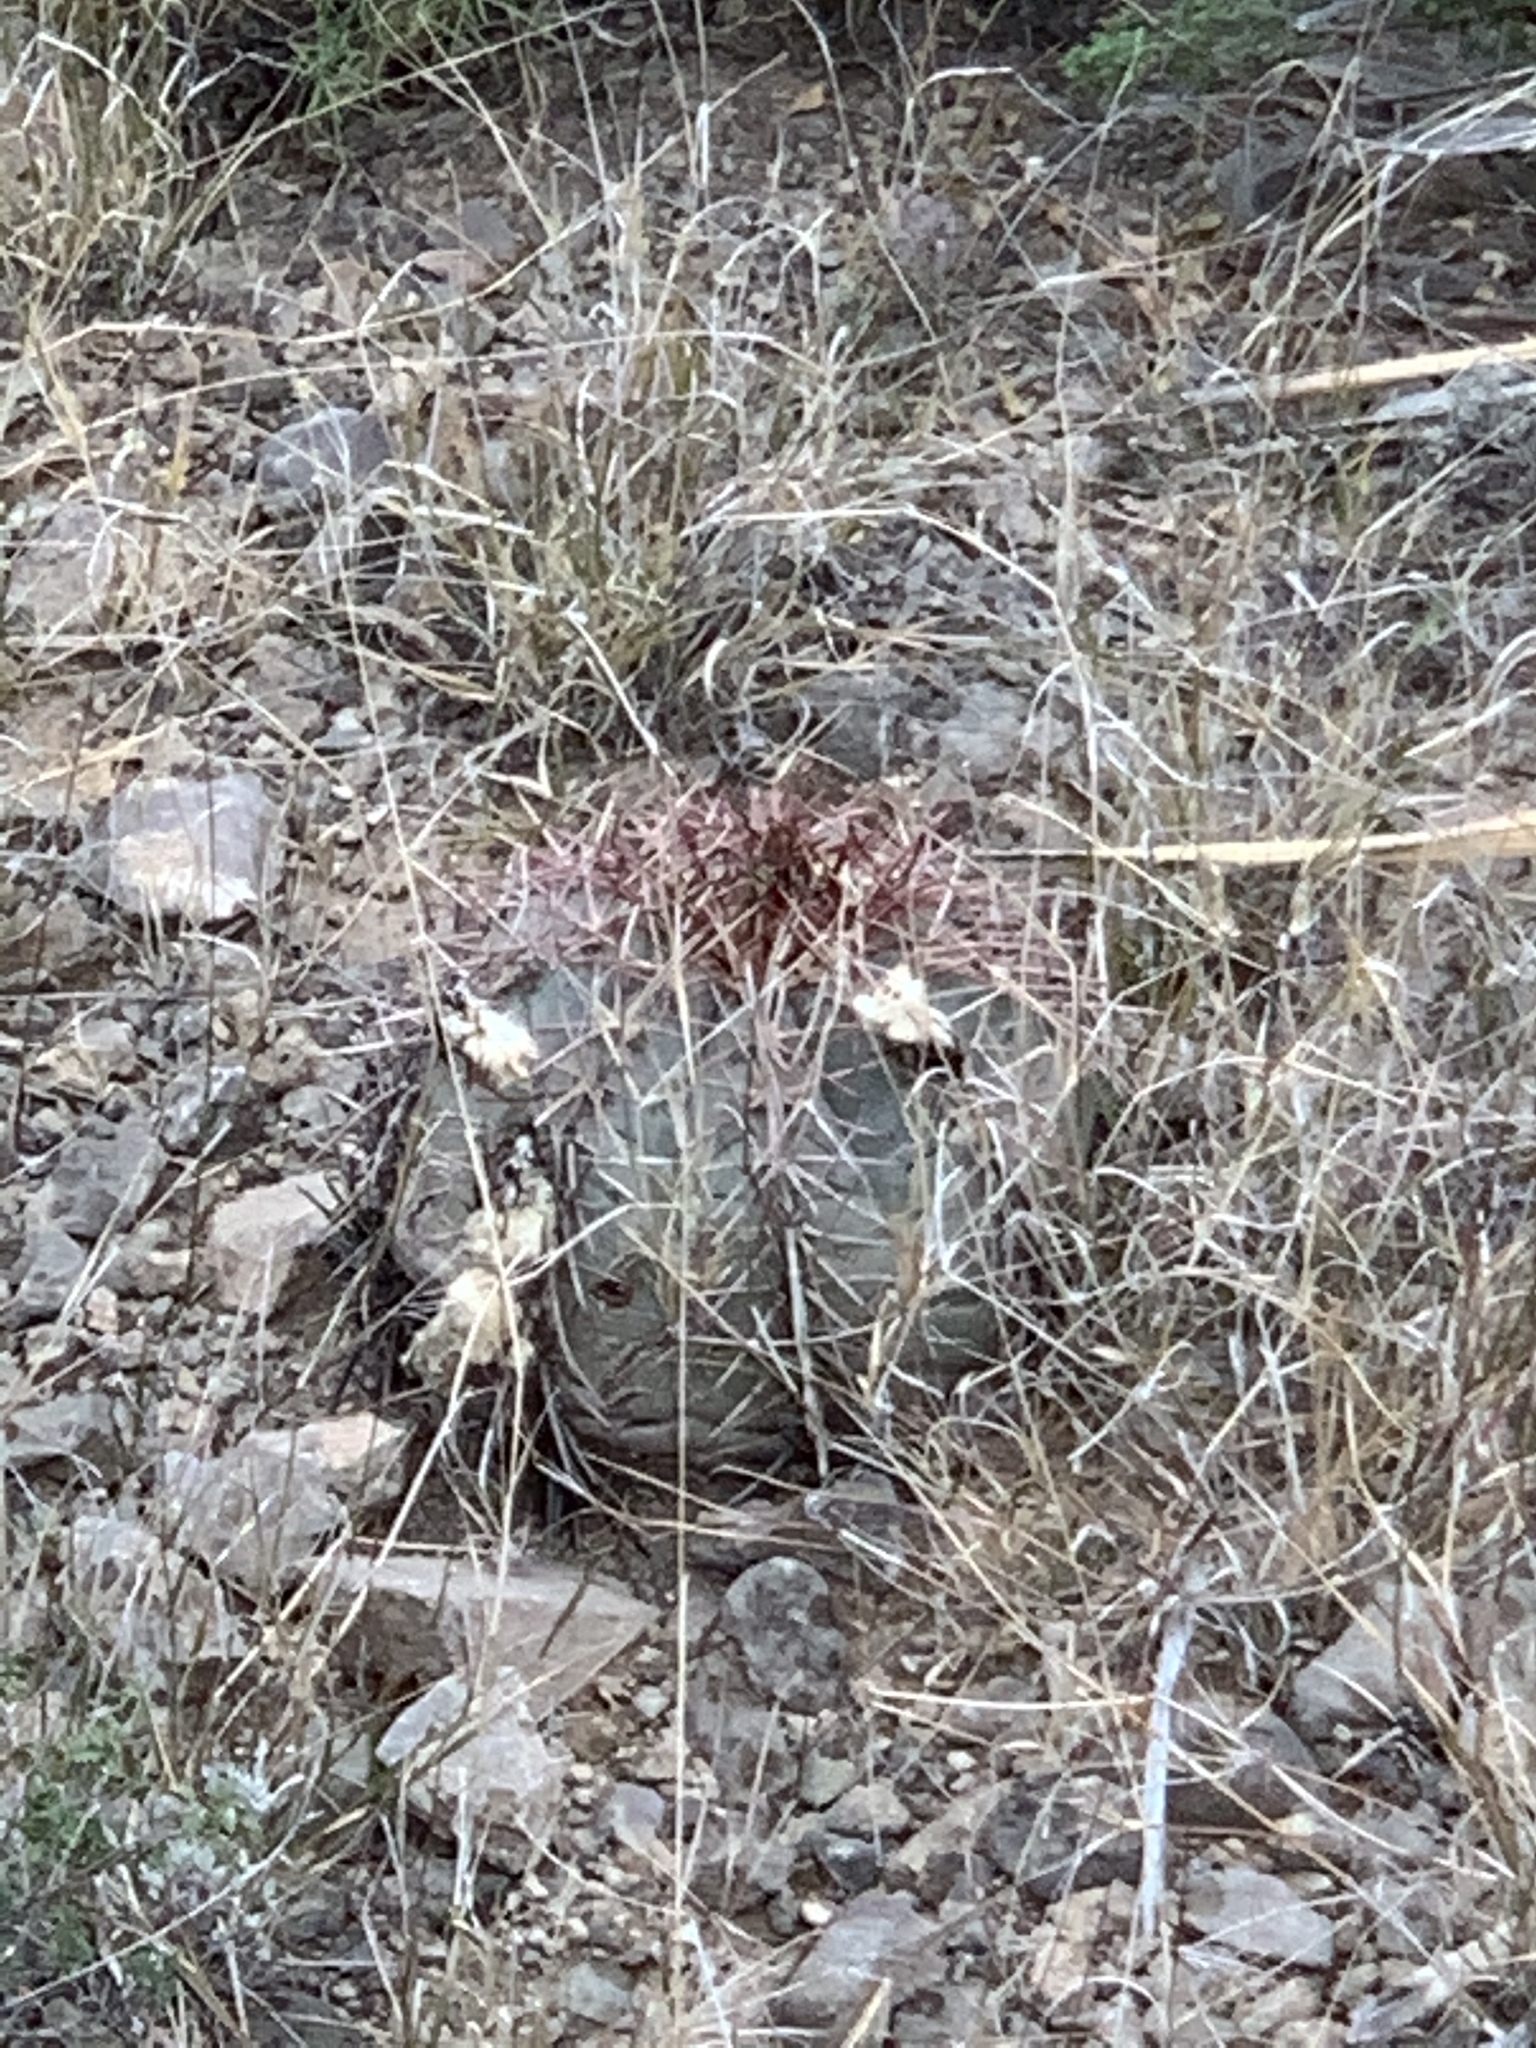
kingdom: Plantae
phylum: Tracheophyta
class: Magnoliopsida
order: Caryophyllales
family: Cactaceae
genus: Echinocactus
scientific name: Echinocactus horizonthalonius
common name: Devilshead
